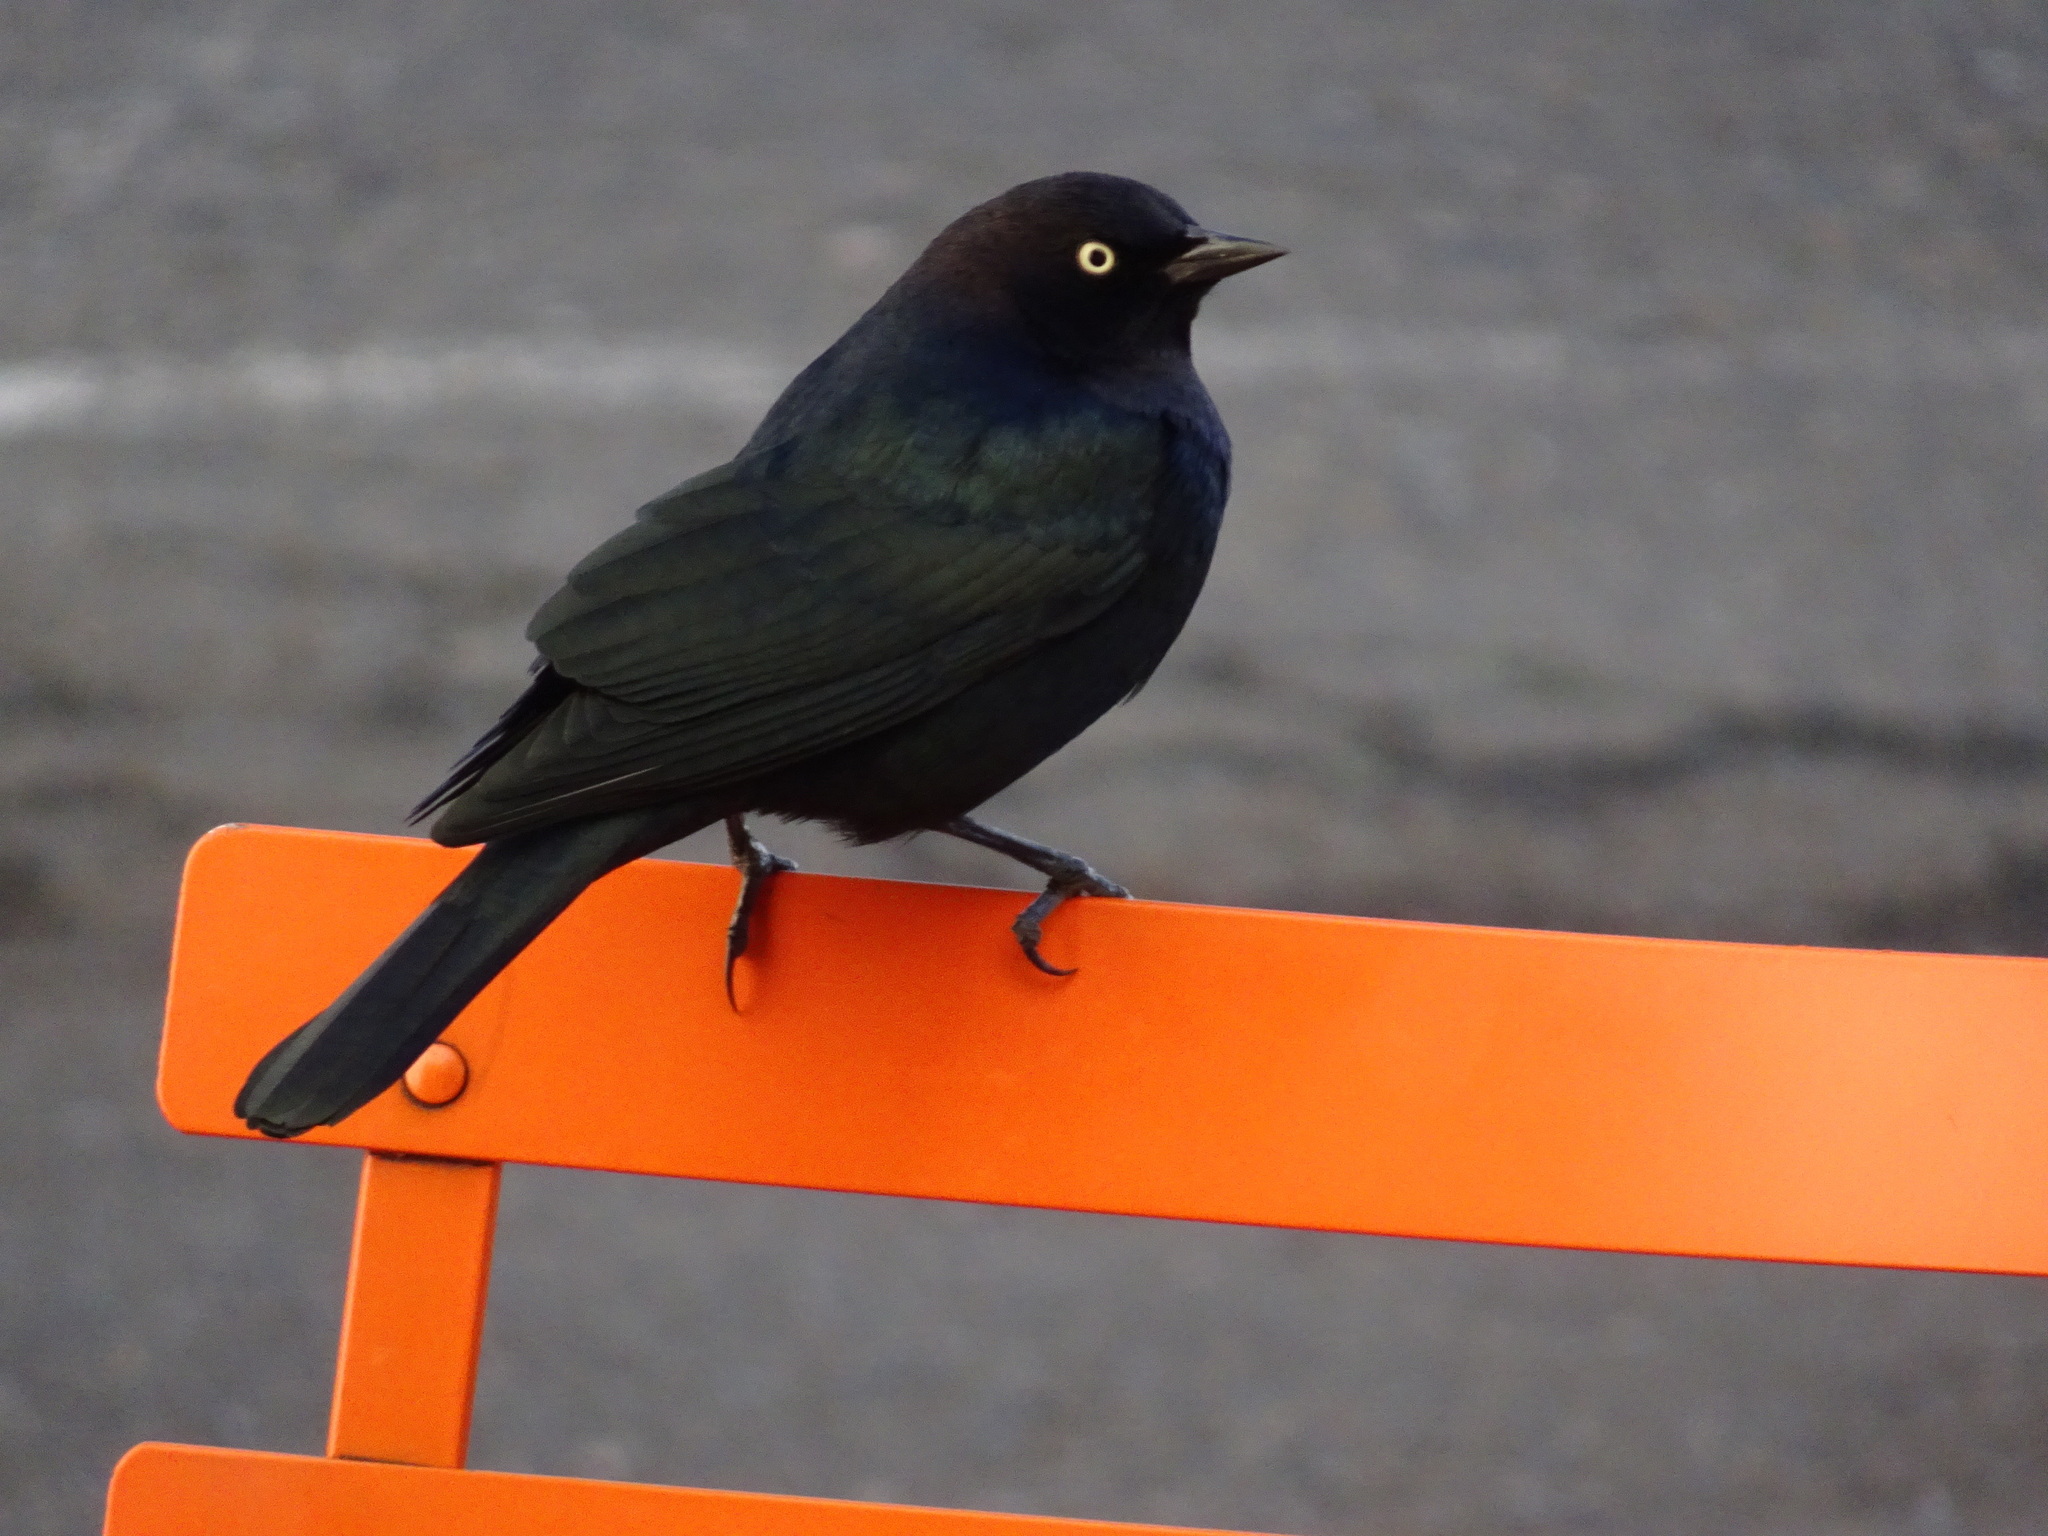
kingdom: Animalia
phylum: Chordata
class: Aves
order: Passeriformes
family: Icteridae
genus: Euphagus
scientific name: Euphagus cyanocephalus
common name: Brewer's blackbird
